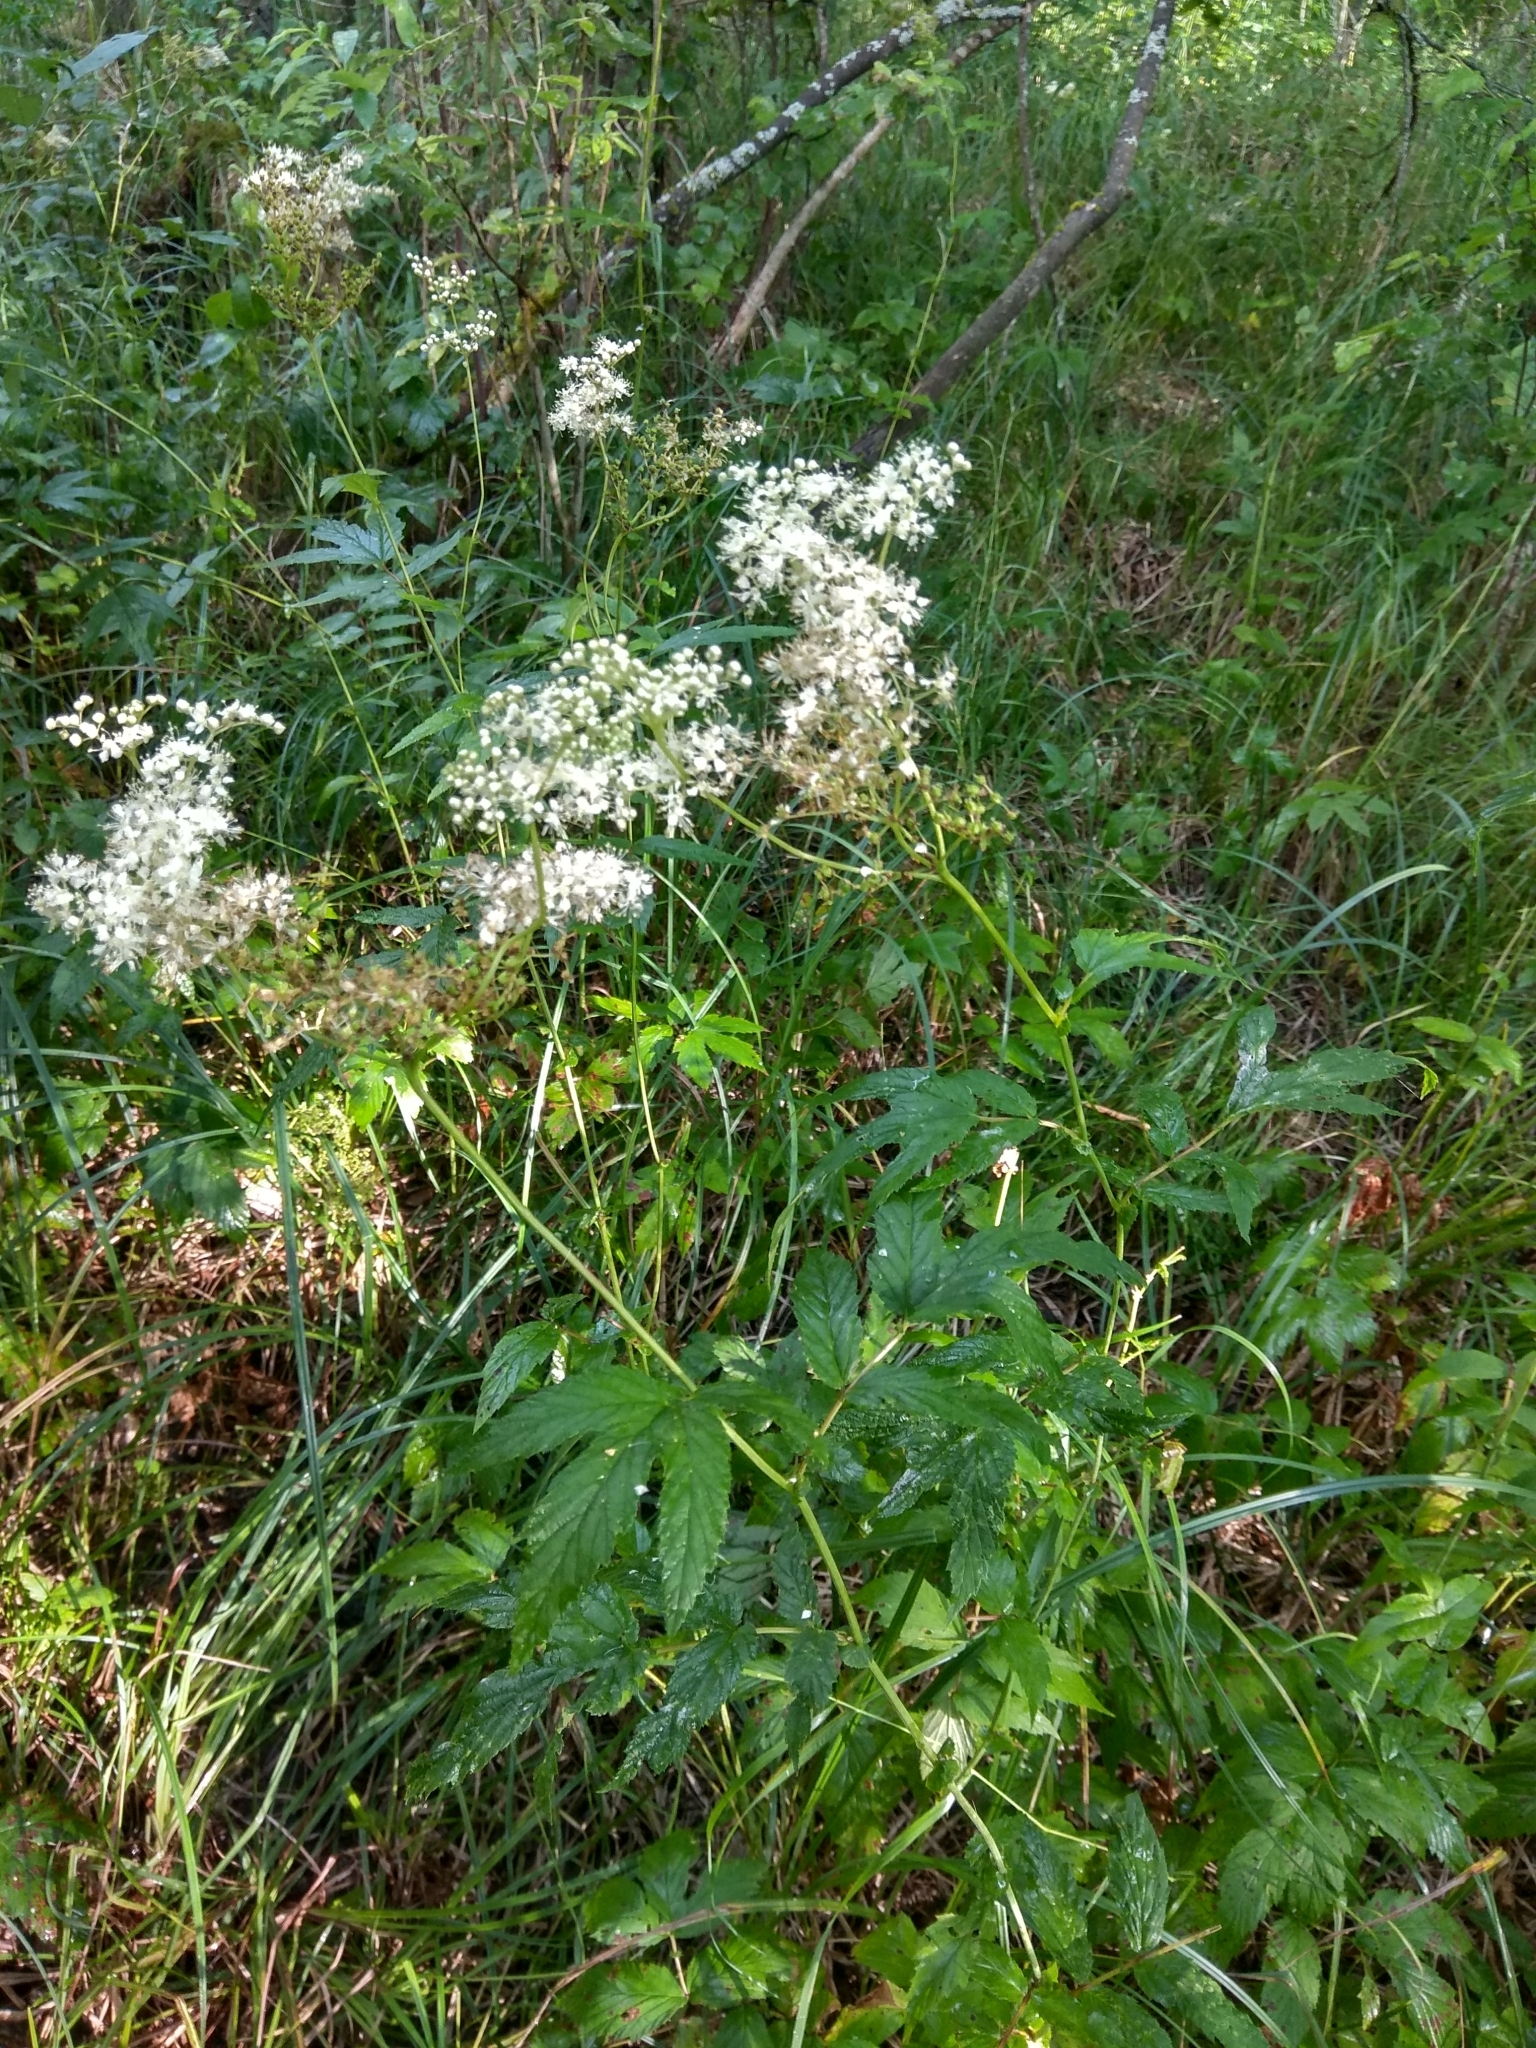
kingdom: Plantae
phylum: Tracheophyta
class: Magnoliopsida
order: Rosales
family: Rosaceae
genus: Filipendula
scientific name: Filipendula ulmaria
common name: Meadowsweet
